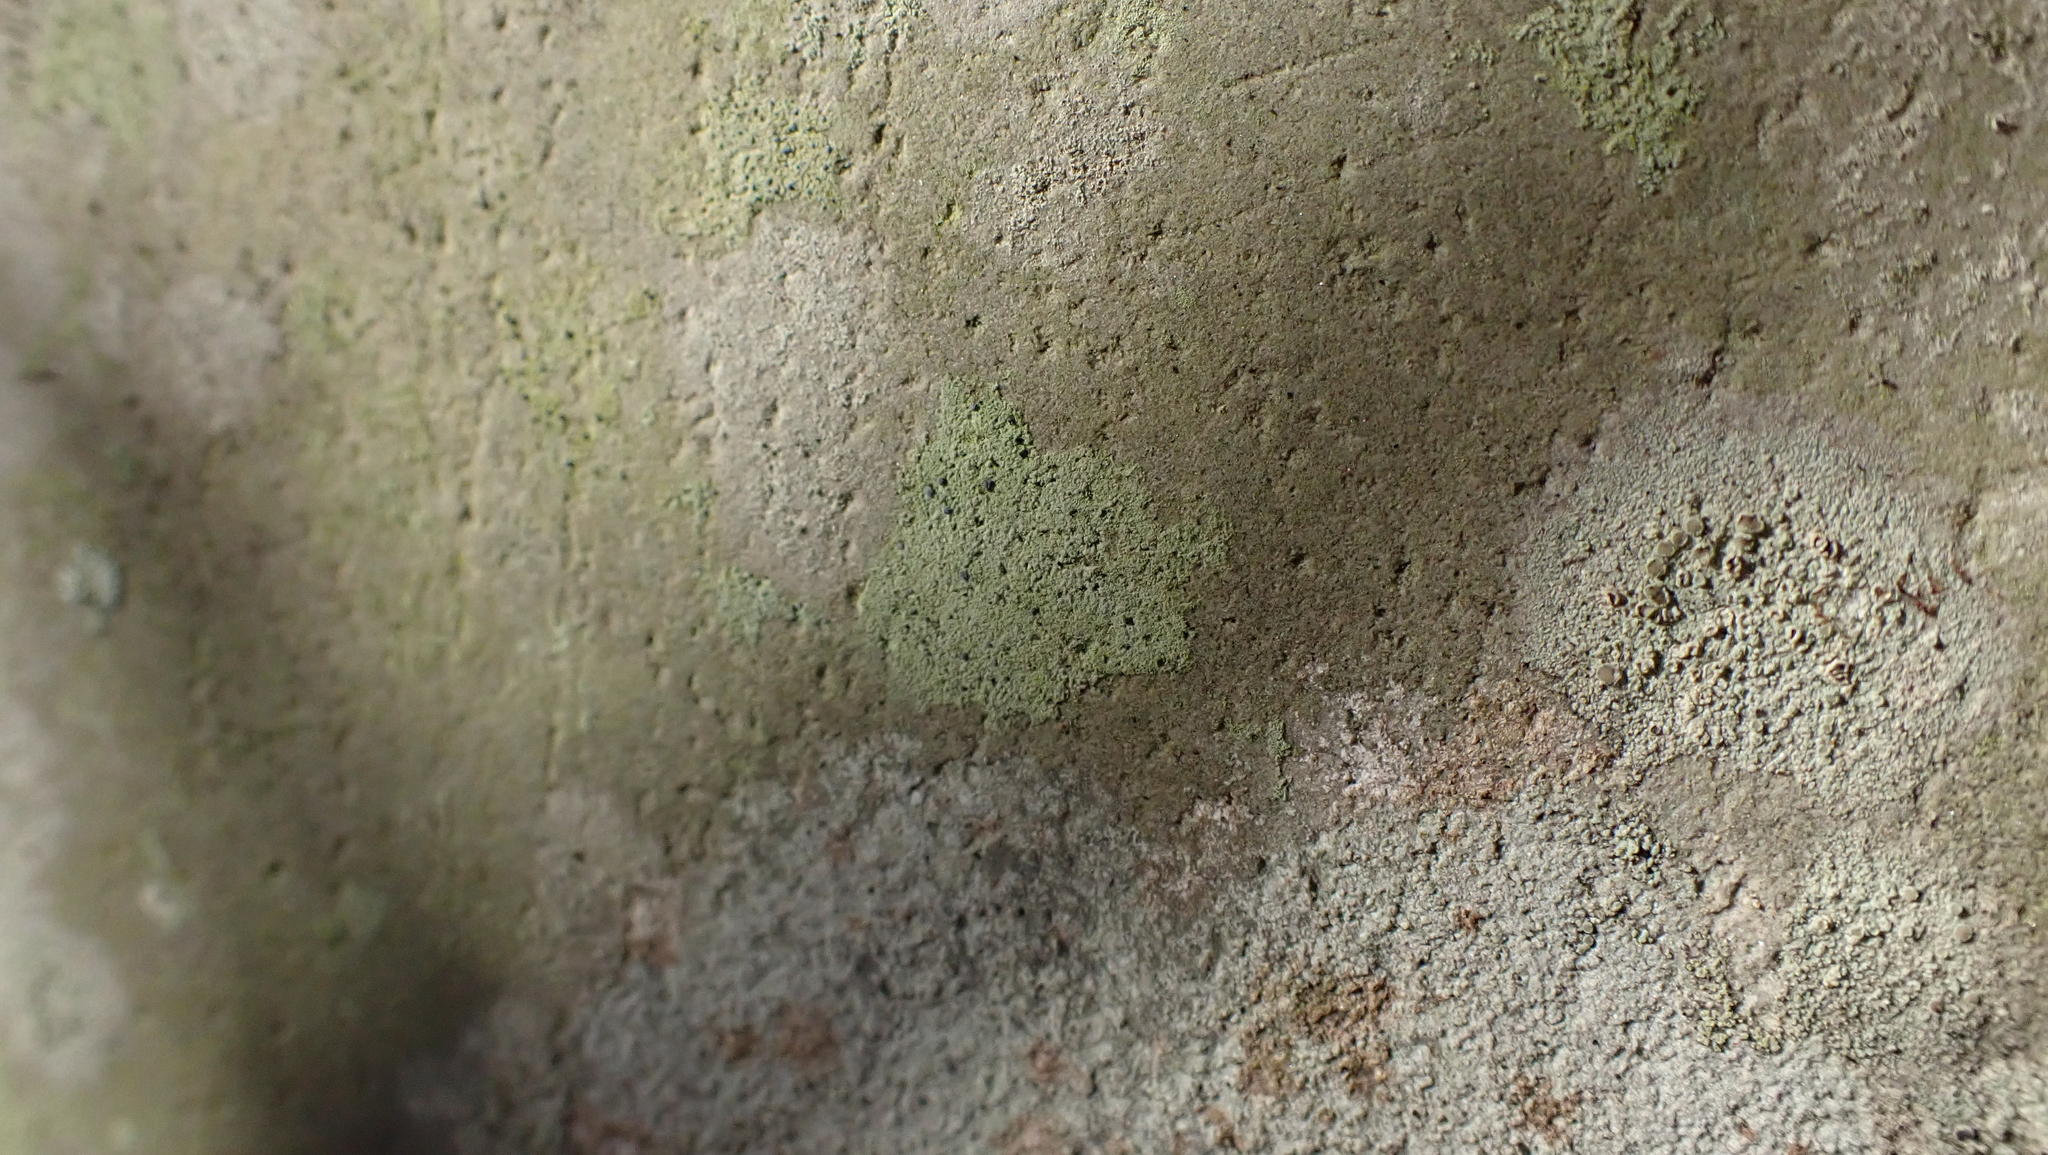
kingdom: Fungi
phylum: Ascomycota
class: Lecanoromycetes
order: Lecanorales
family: Ramalinaceae
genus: Bacidia
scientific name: Bacidia schweinitzii
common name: Surprise lichen
